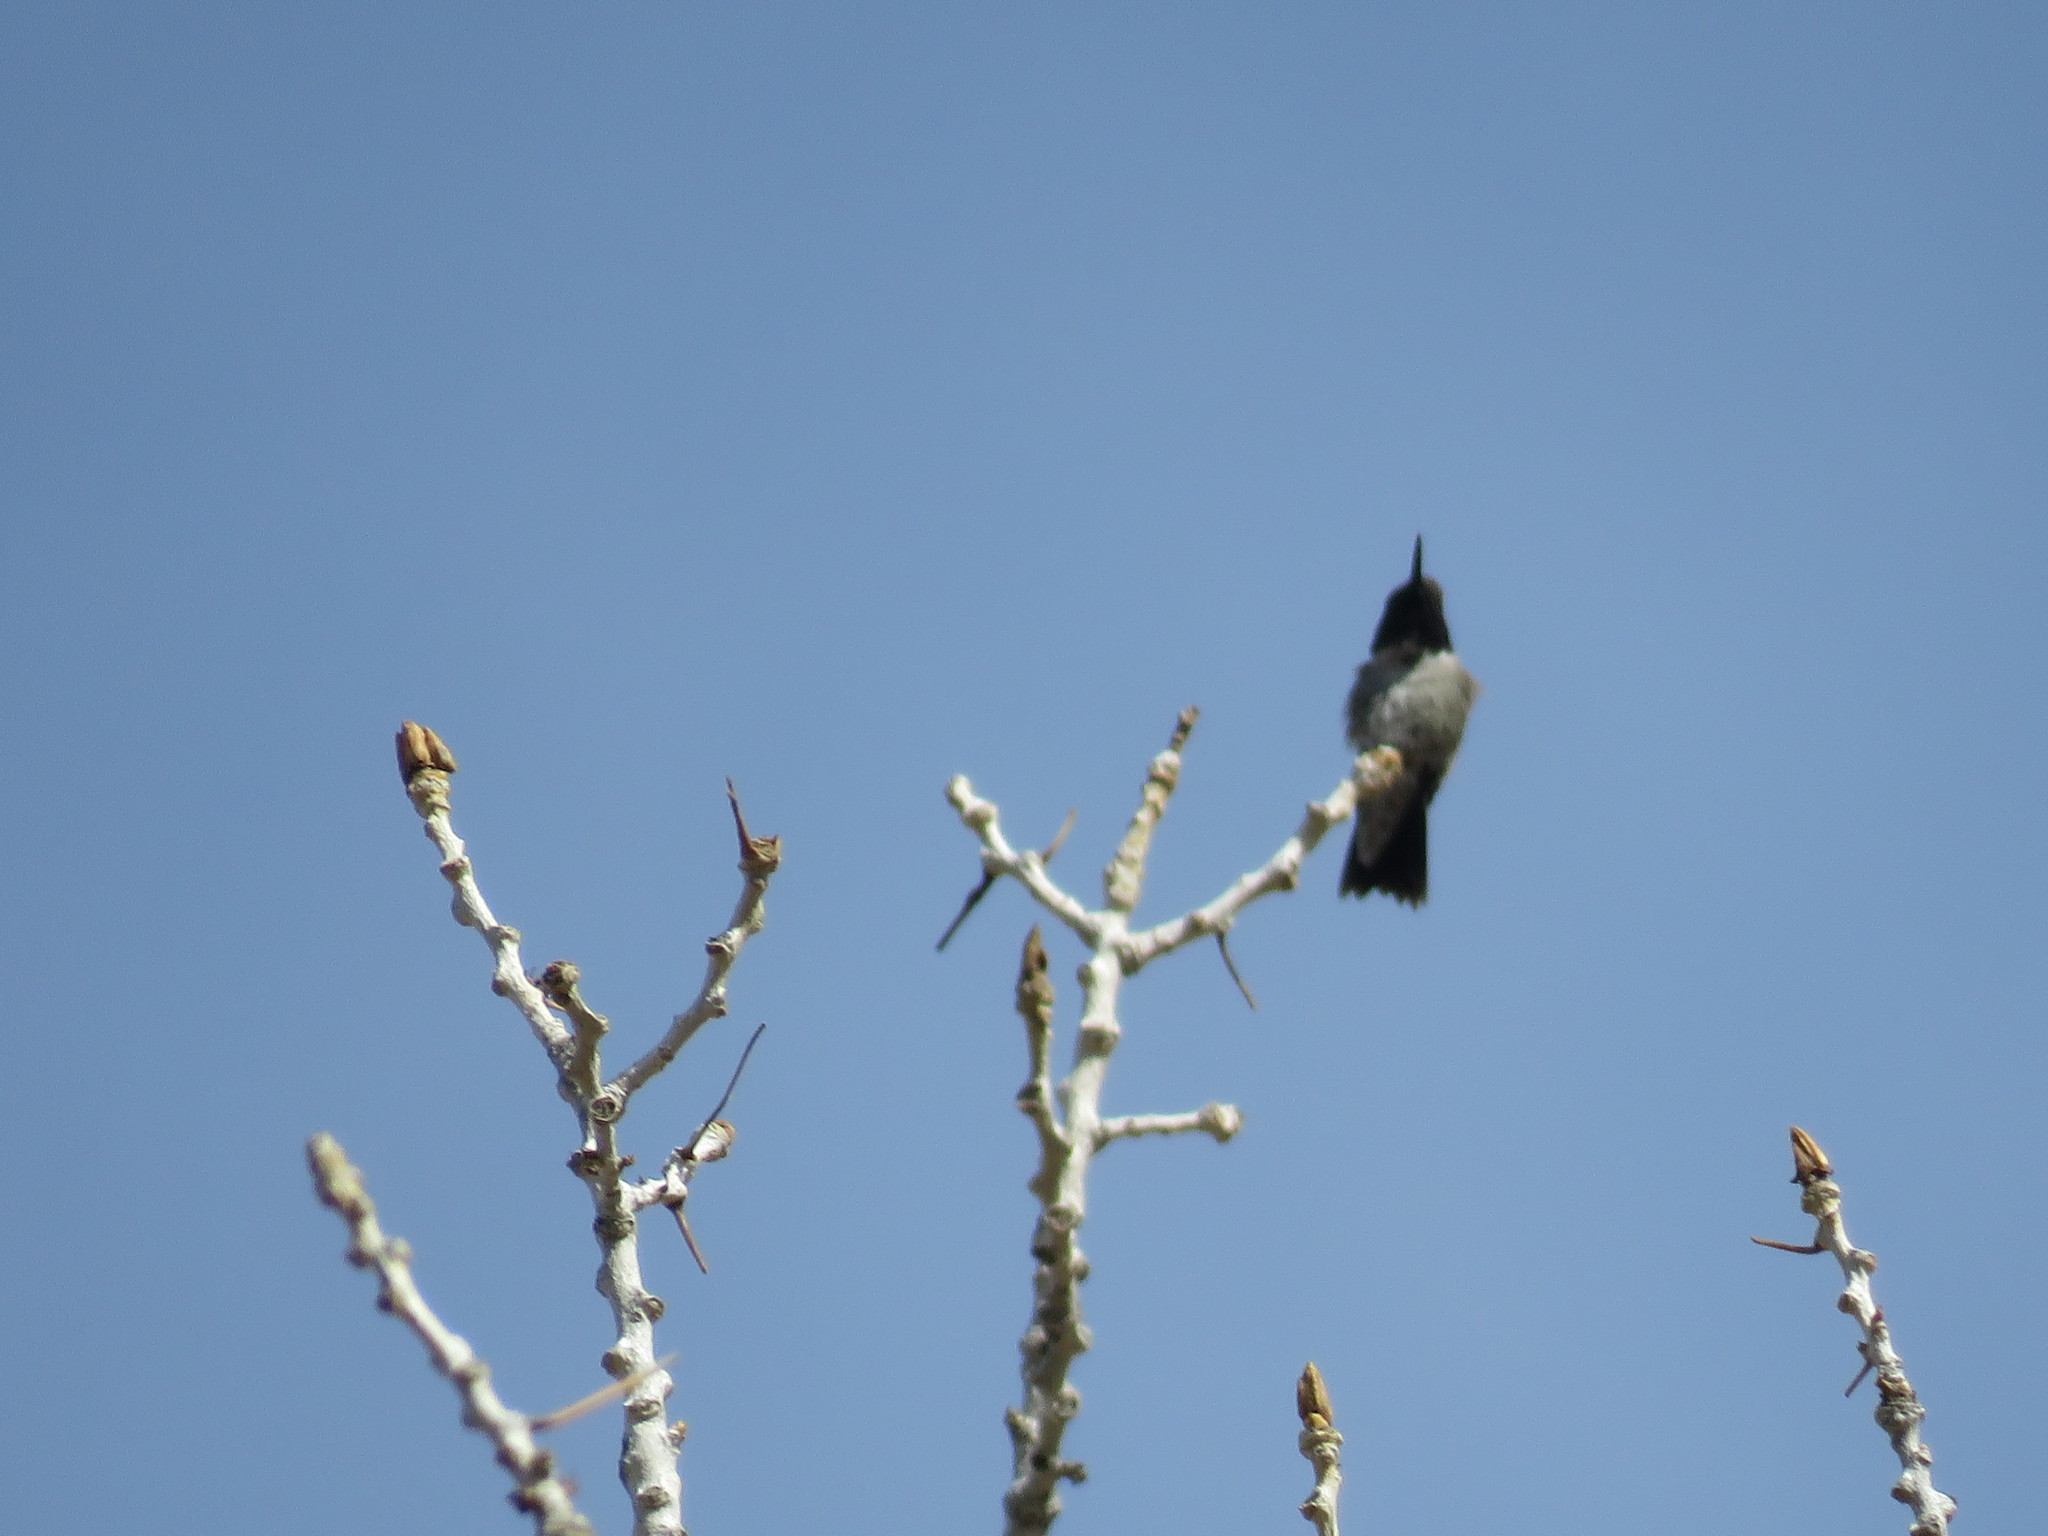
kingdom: Animalia
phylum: Chordata
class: Aves
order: Apodiformes
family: Trochilidae
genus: Archilochus
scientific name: Archilochus alexandri
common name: Black-chinned hummingbird
